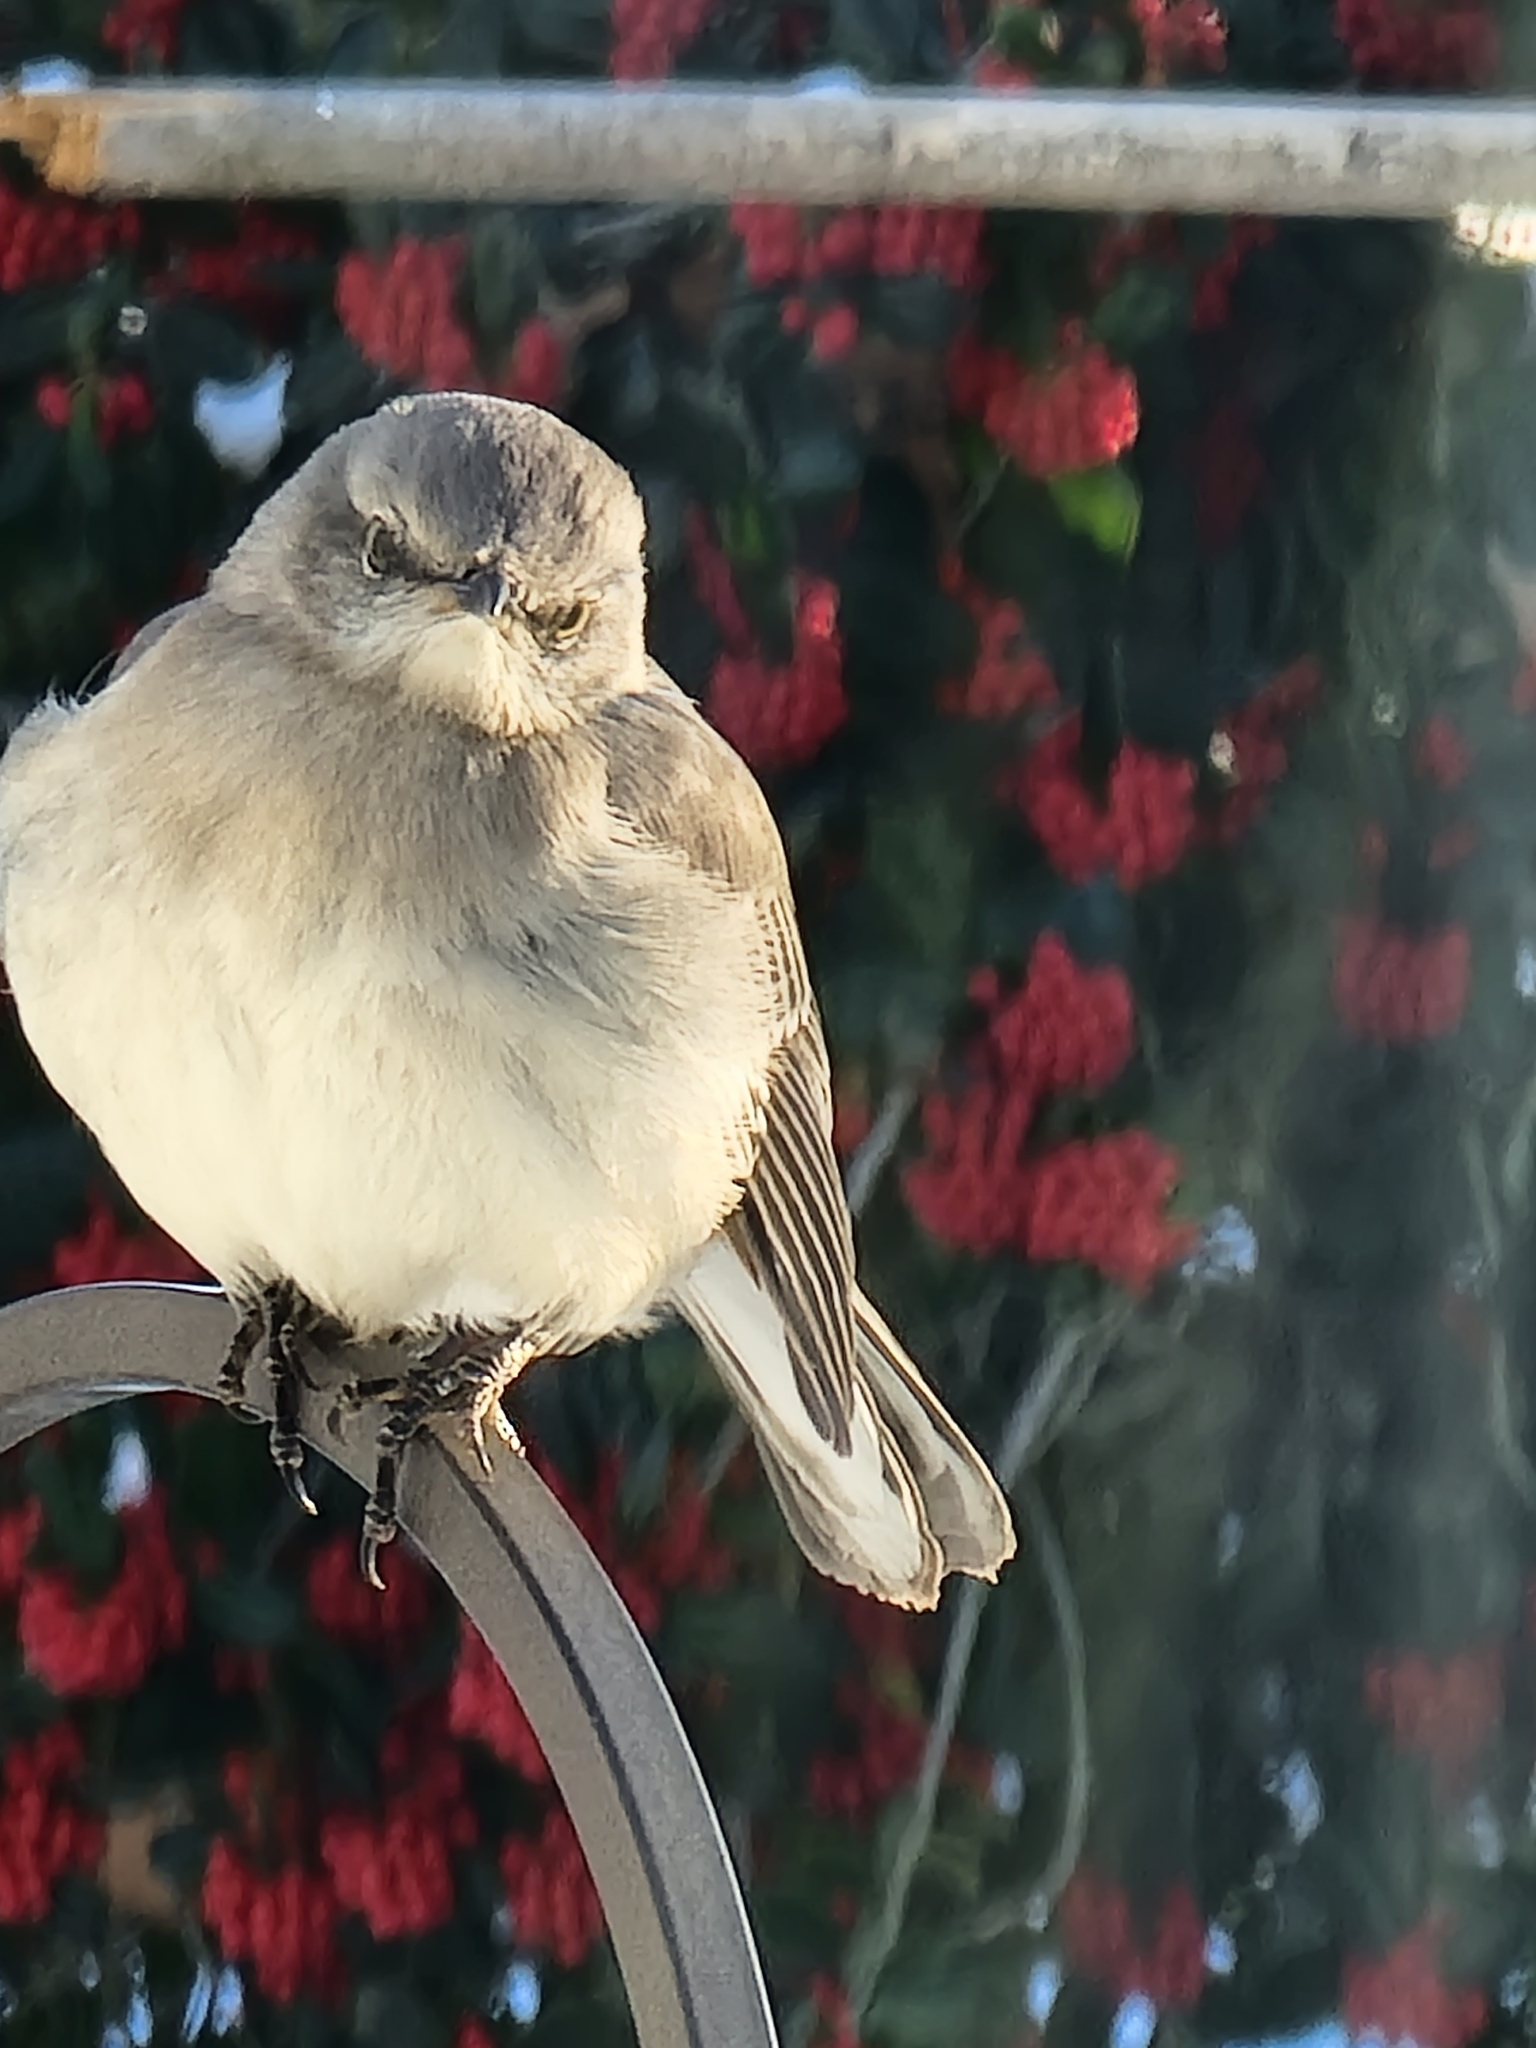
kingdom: Animalia
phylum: Chordata
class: Aves
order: Passeriformes
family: Mimidae
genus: Mimus
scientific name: Mimus polyglottos
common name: Northern mockingbird
